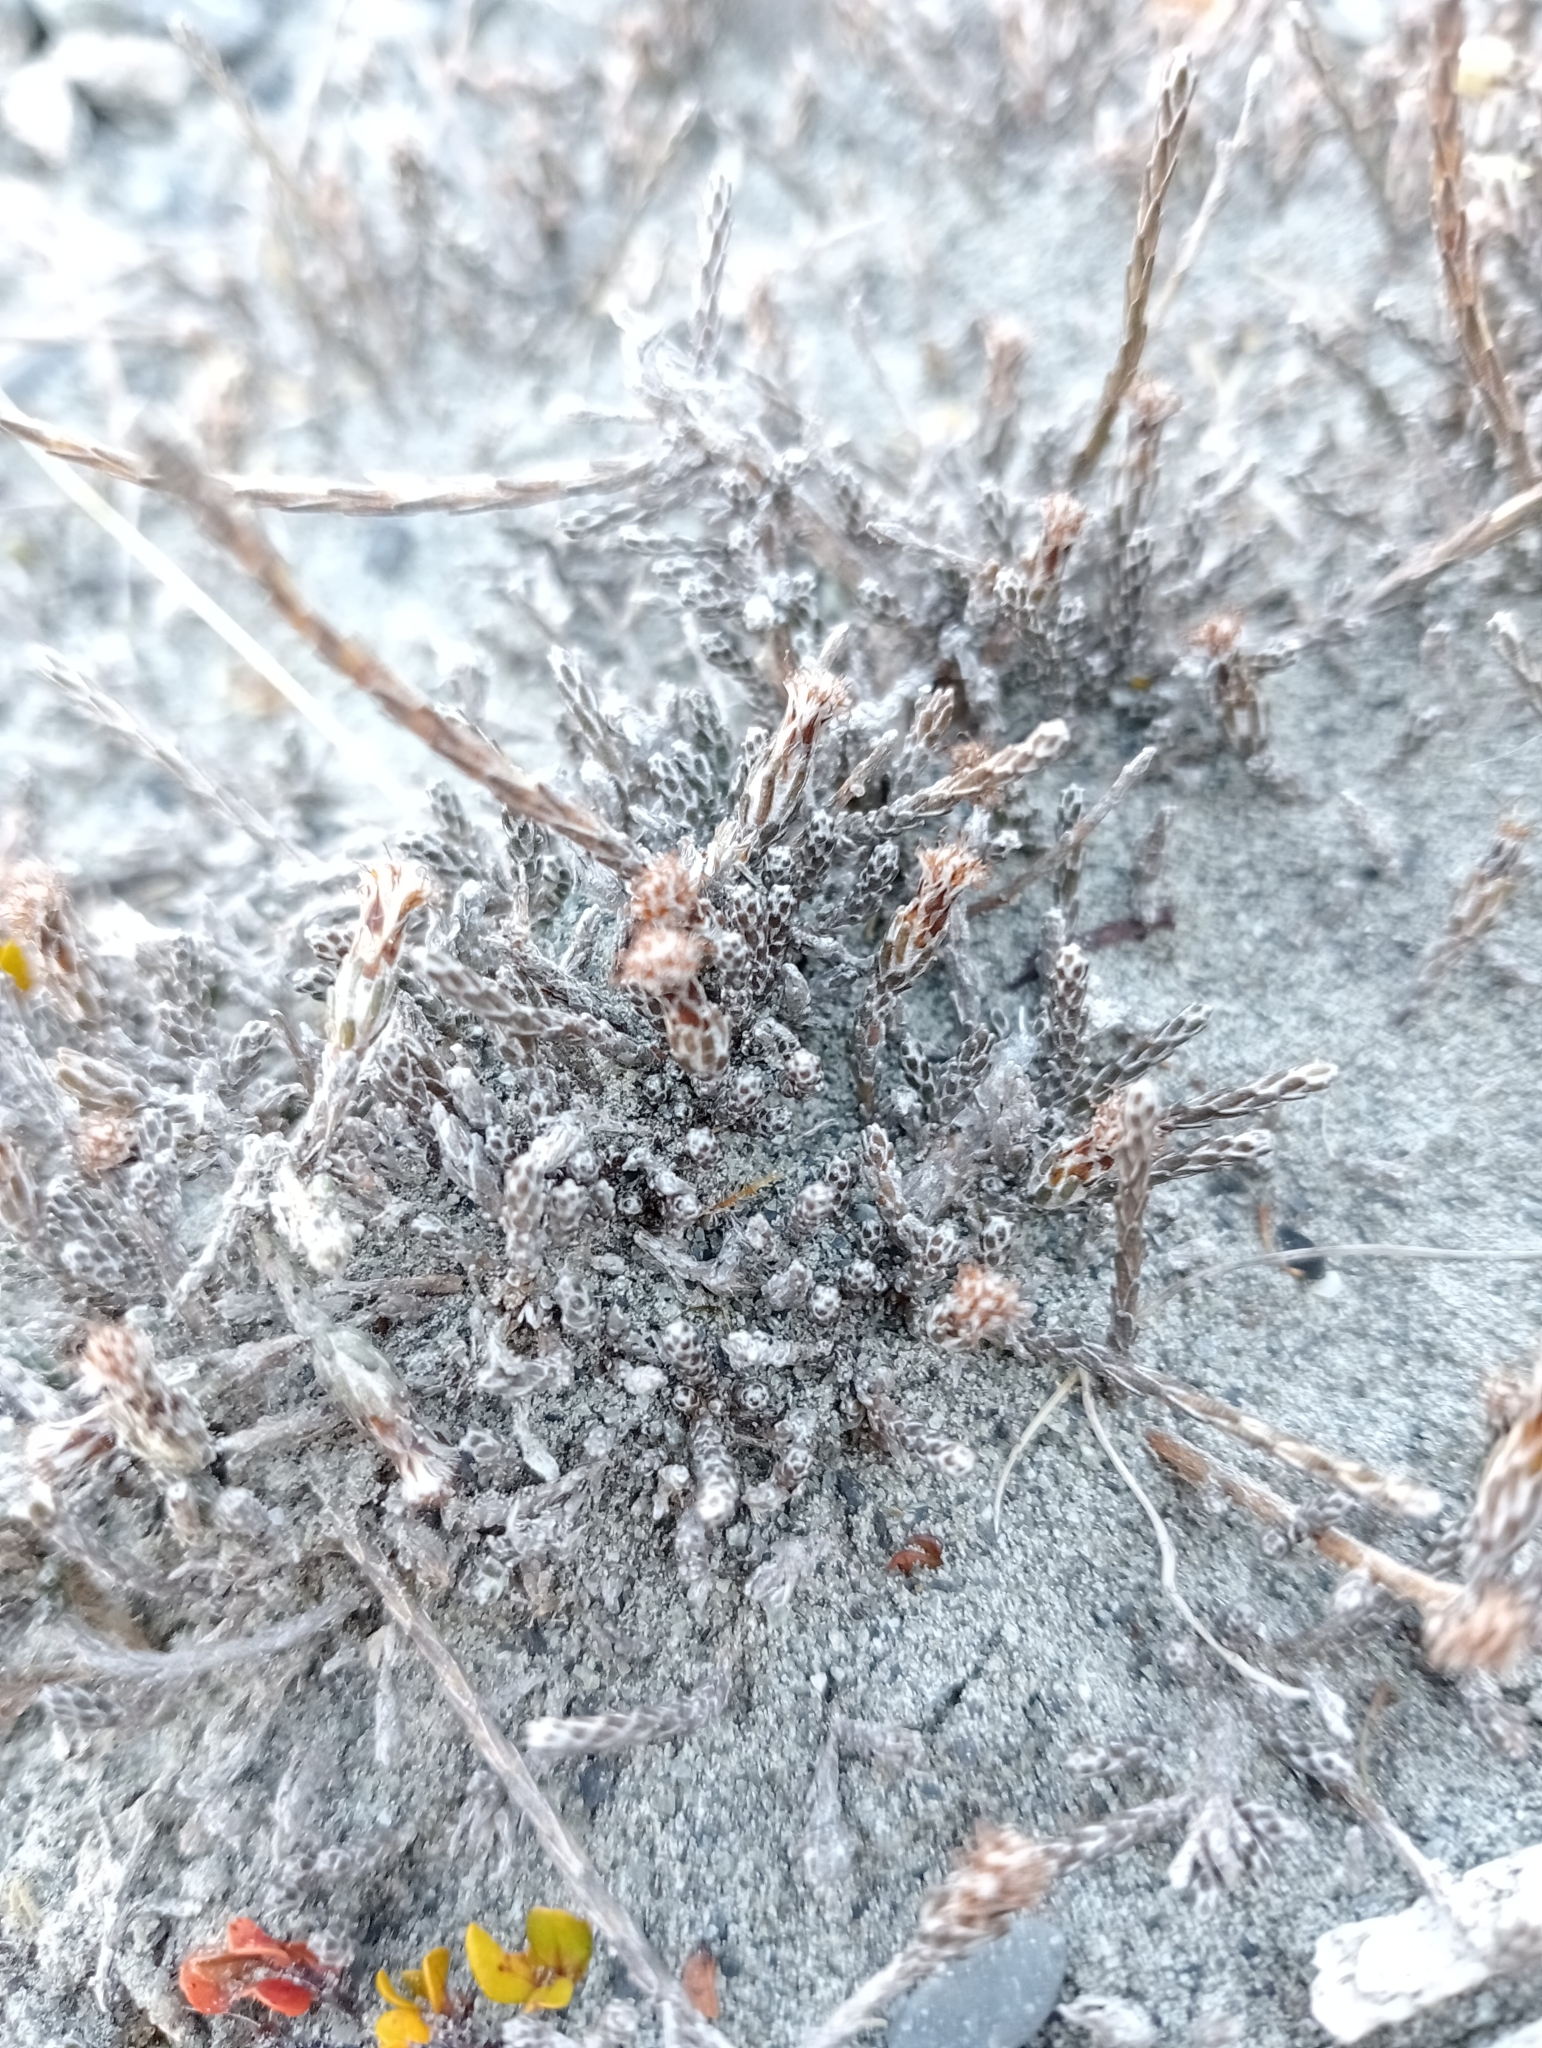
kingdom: Plantae
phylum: Tracheophyta
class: Magnoliopsida
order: Asterales
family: Asteraceae
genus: Ozothamnus
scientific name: Ozothamnus depressus
